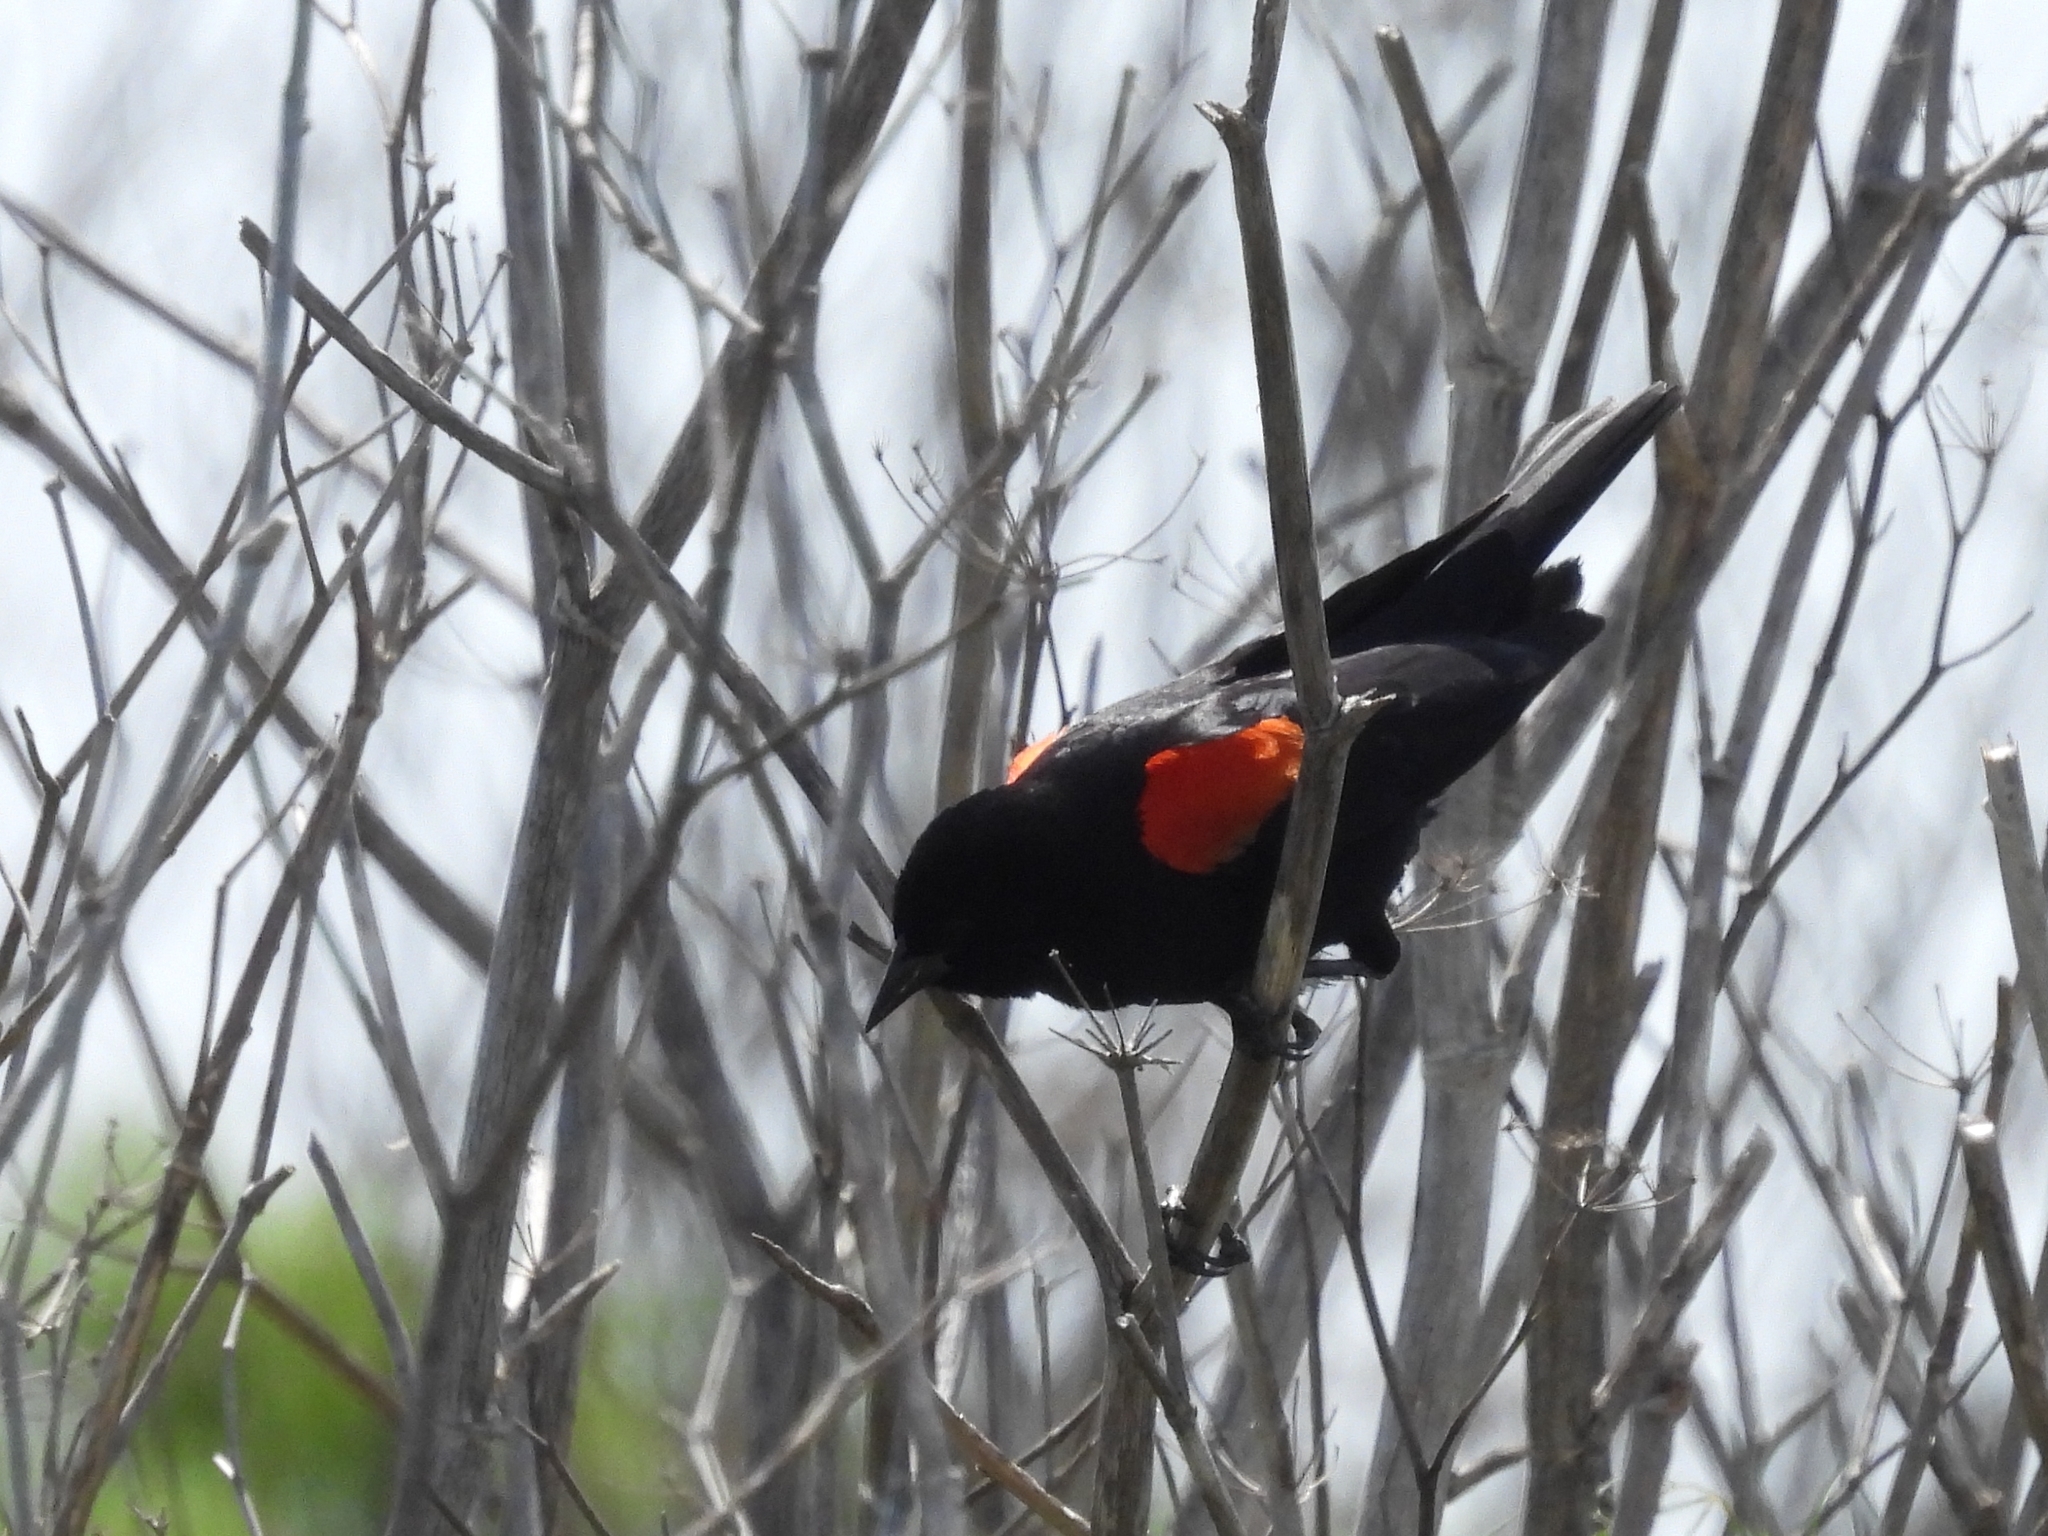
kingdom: Animalia
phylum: Chordata
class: Aves
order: Passeriformes
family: Icteridae
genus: Agelaius
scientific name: Agelaius phoeniceus
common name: Red-winged blackbird
